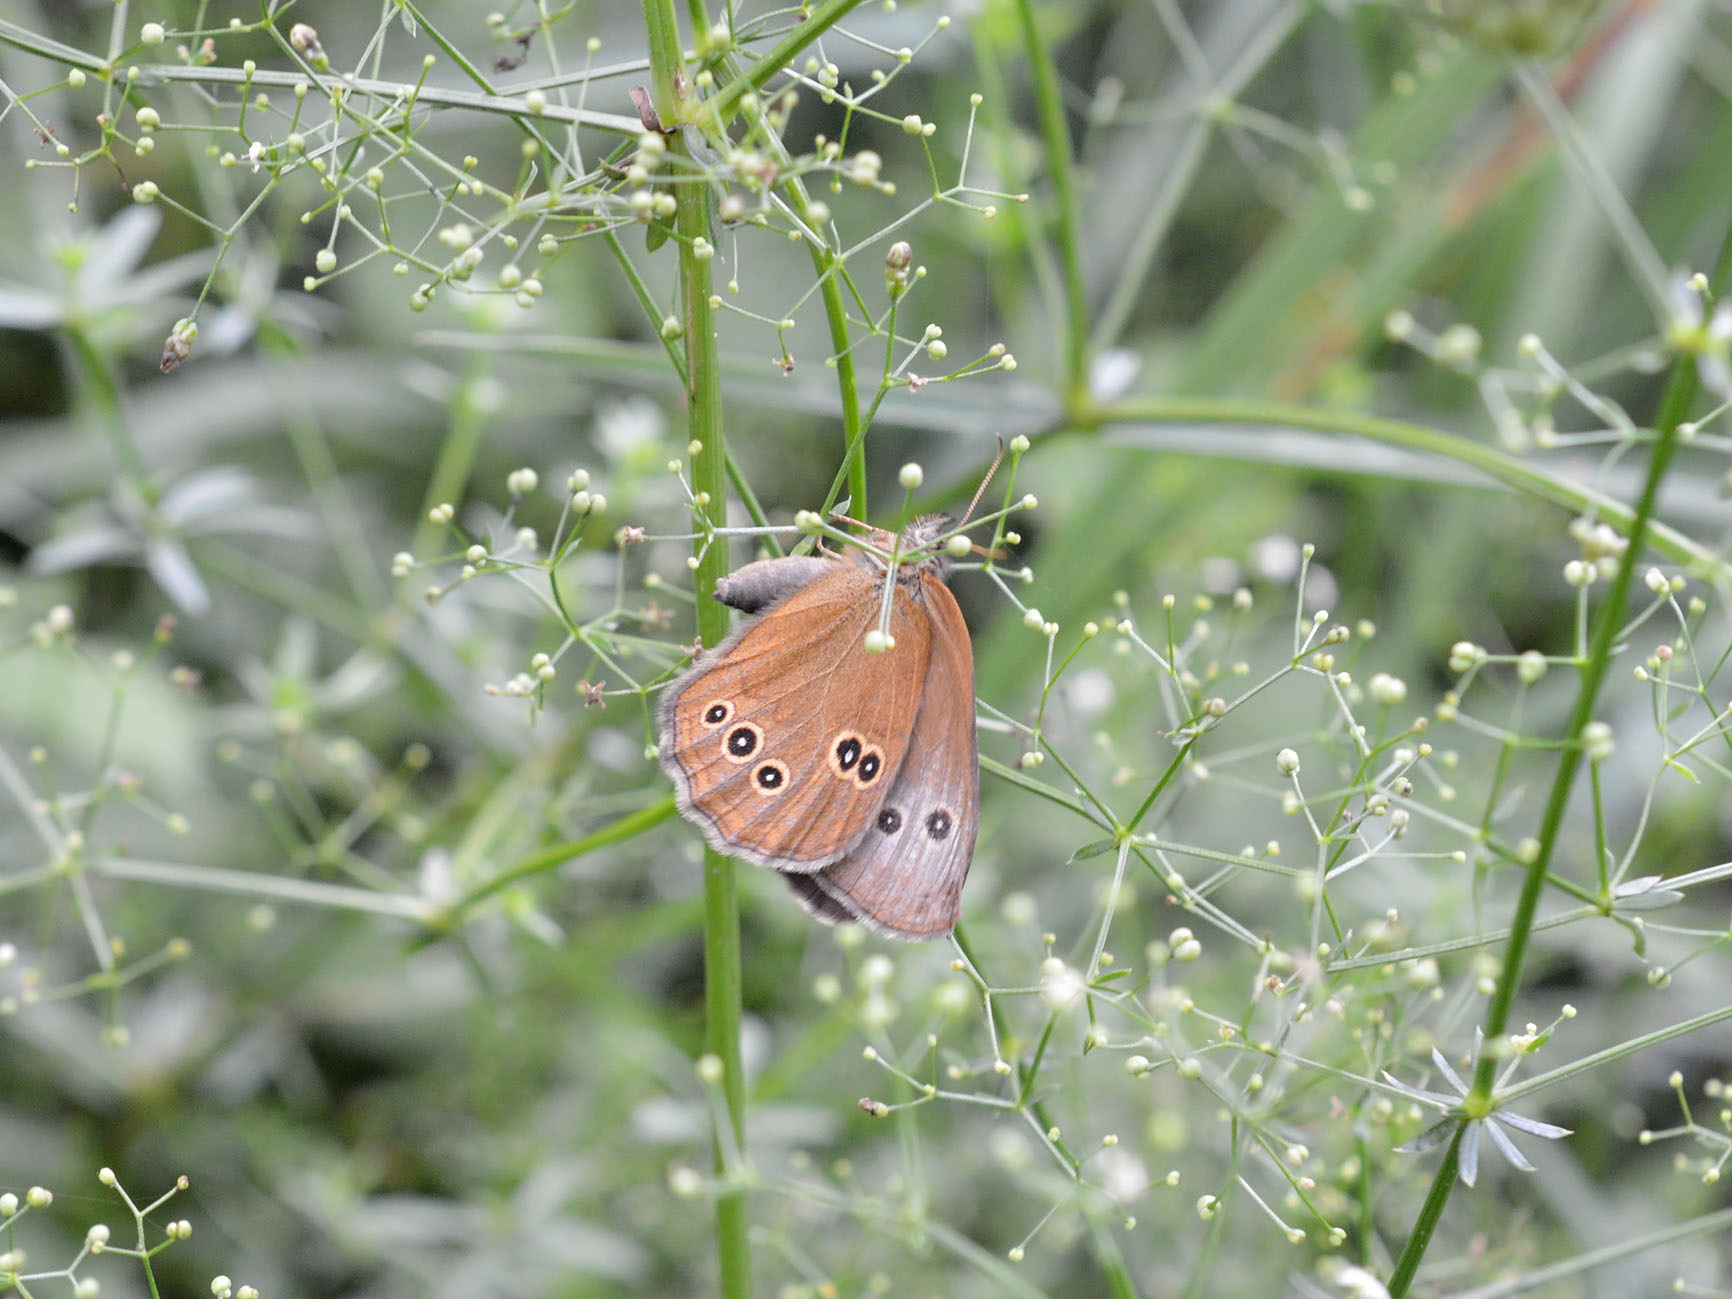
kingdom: Animalia
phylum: Arthropoda
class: Insecta
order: Lepidoptera
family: Nymphalidae
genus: Aphantopus
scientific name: Aphantopus hyperantus
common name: Ringlet
